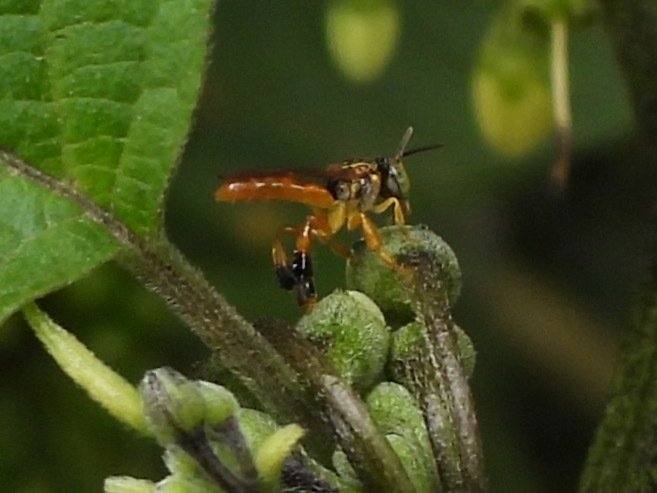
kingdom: Animalia
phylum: Arthropoda
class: Insecta
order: Hymenoptera
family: Apidae
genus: Tetragonisca
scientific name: Tetragonisca angustula
